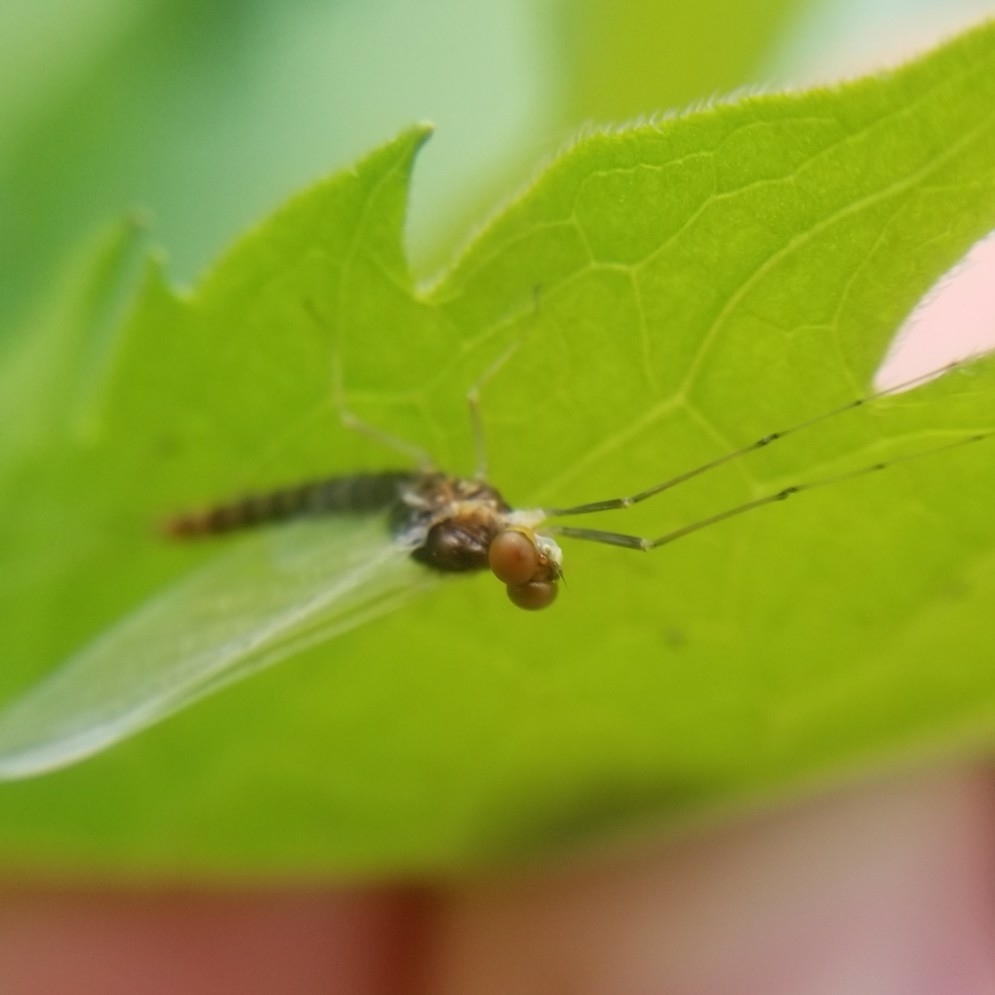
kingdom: Animalia
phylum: Arthropoda
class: Insecta
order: Ephemeroptera
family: Ephemerellidae
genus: Ephemerella
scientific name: Ephemerella needhami
